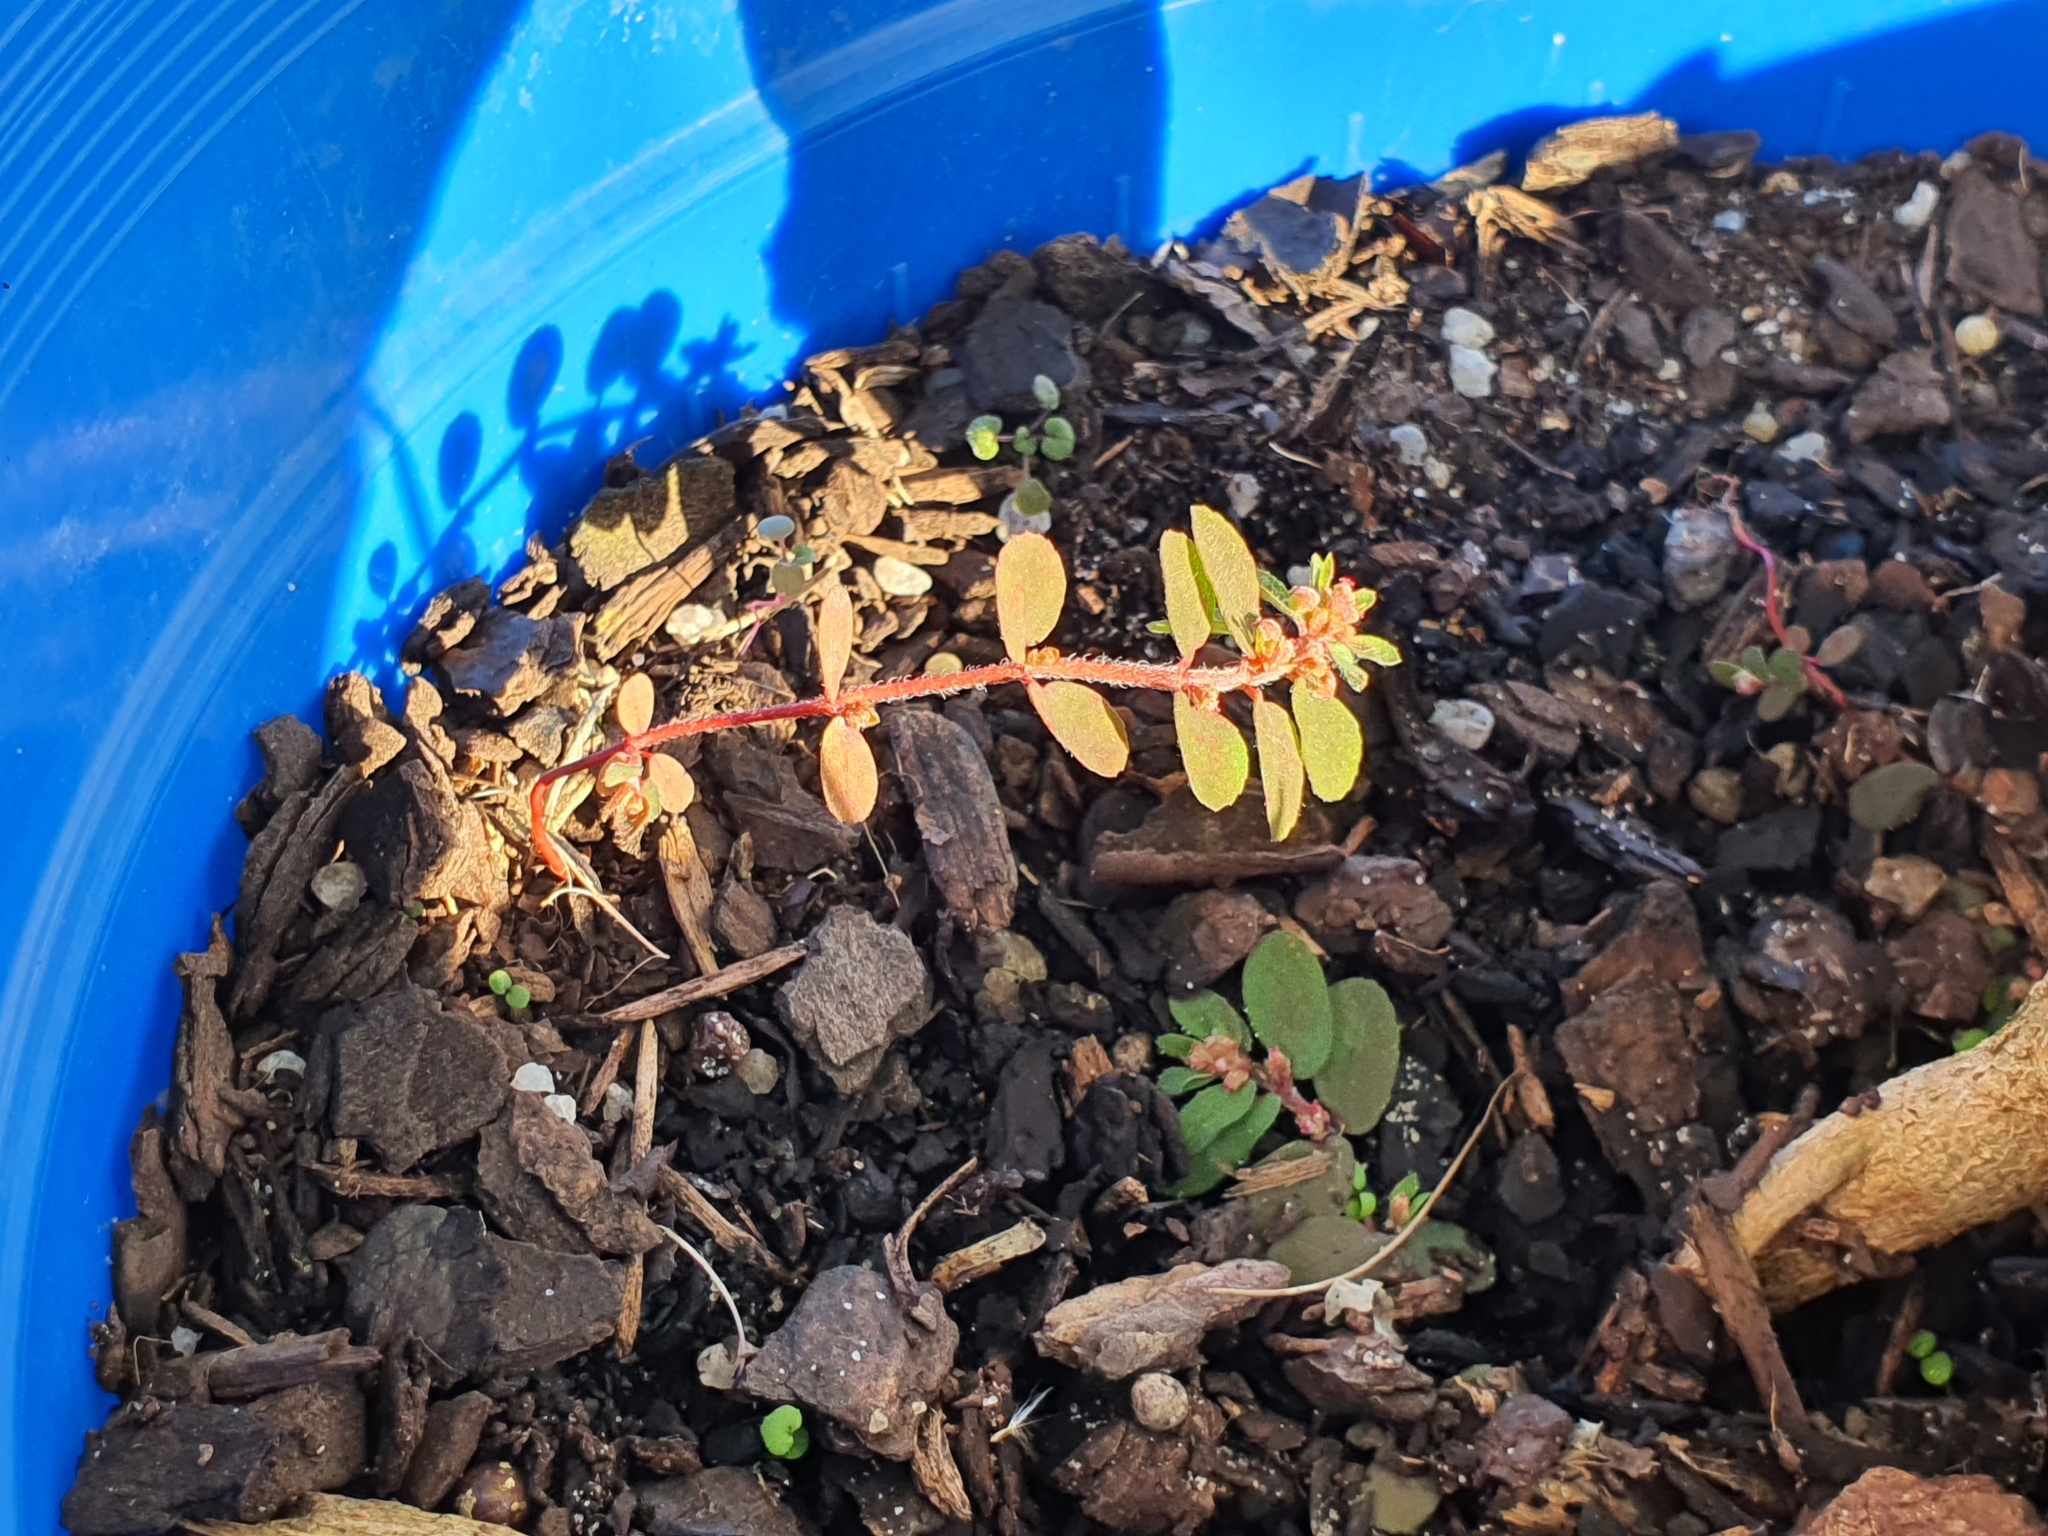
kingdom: Plantae
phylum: Tracheophyta
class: Magnoliopsida
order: Malpighiales
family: Euphorbiaceae
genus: Euphorbia
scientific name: Euphorbia maculata
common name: Spotted spurge
